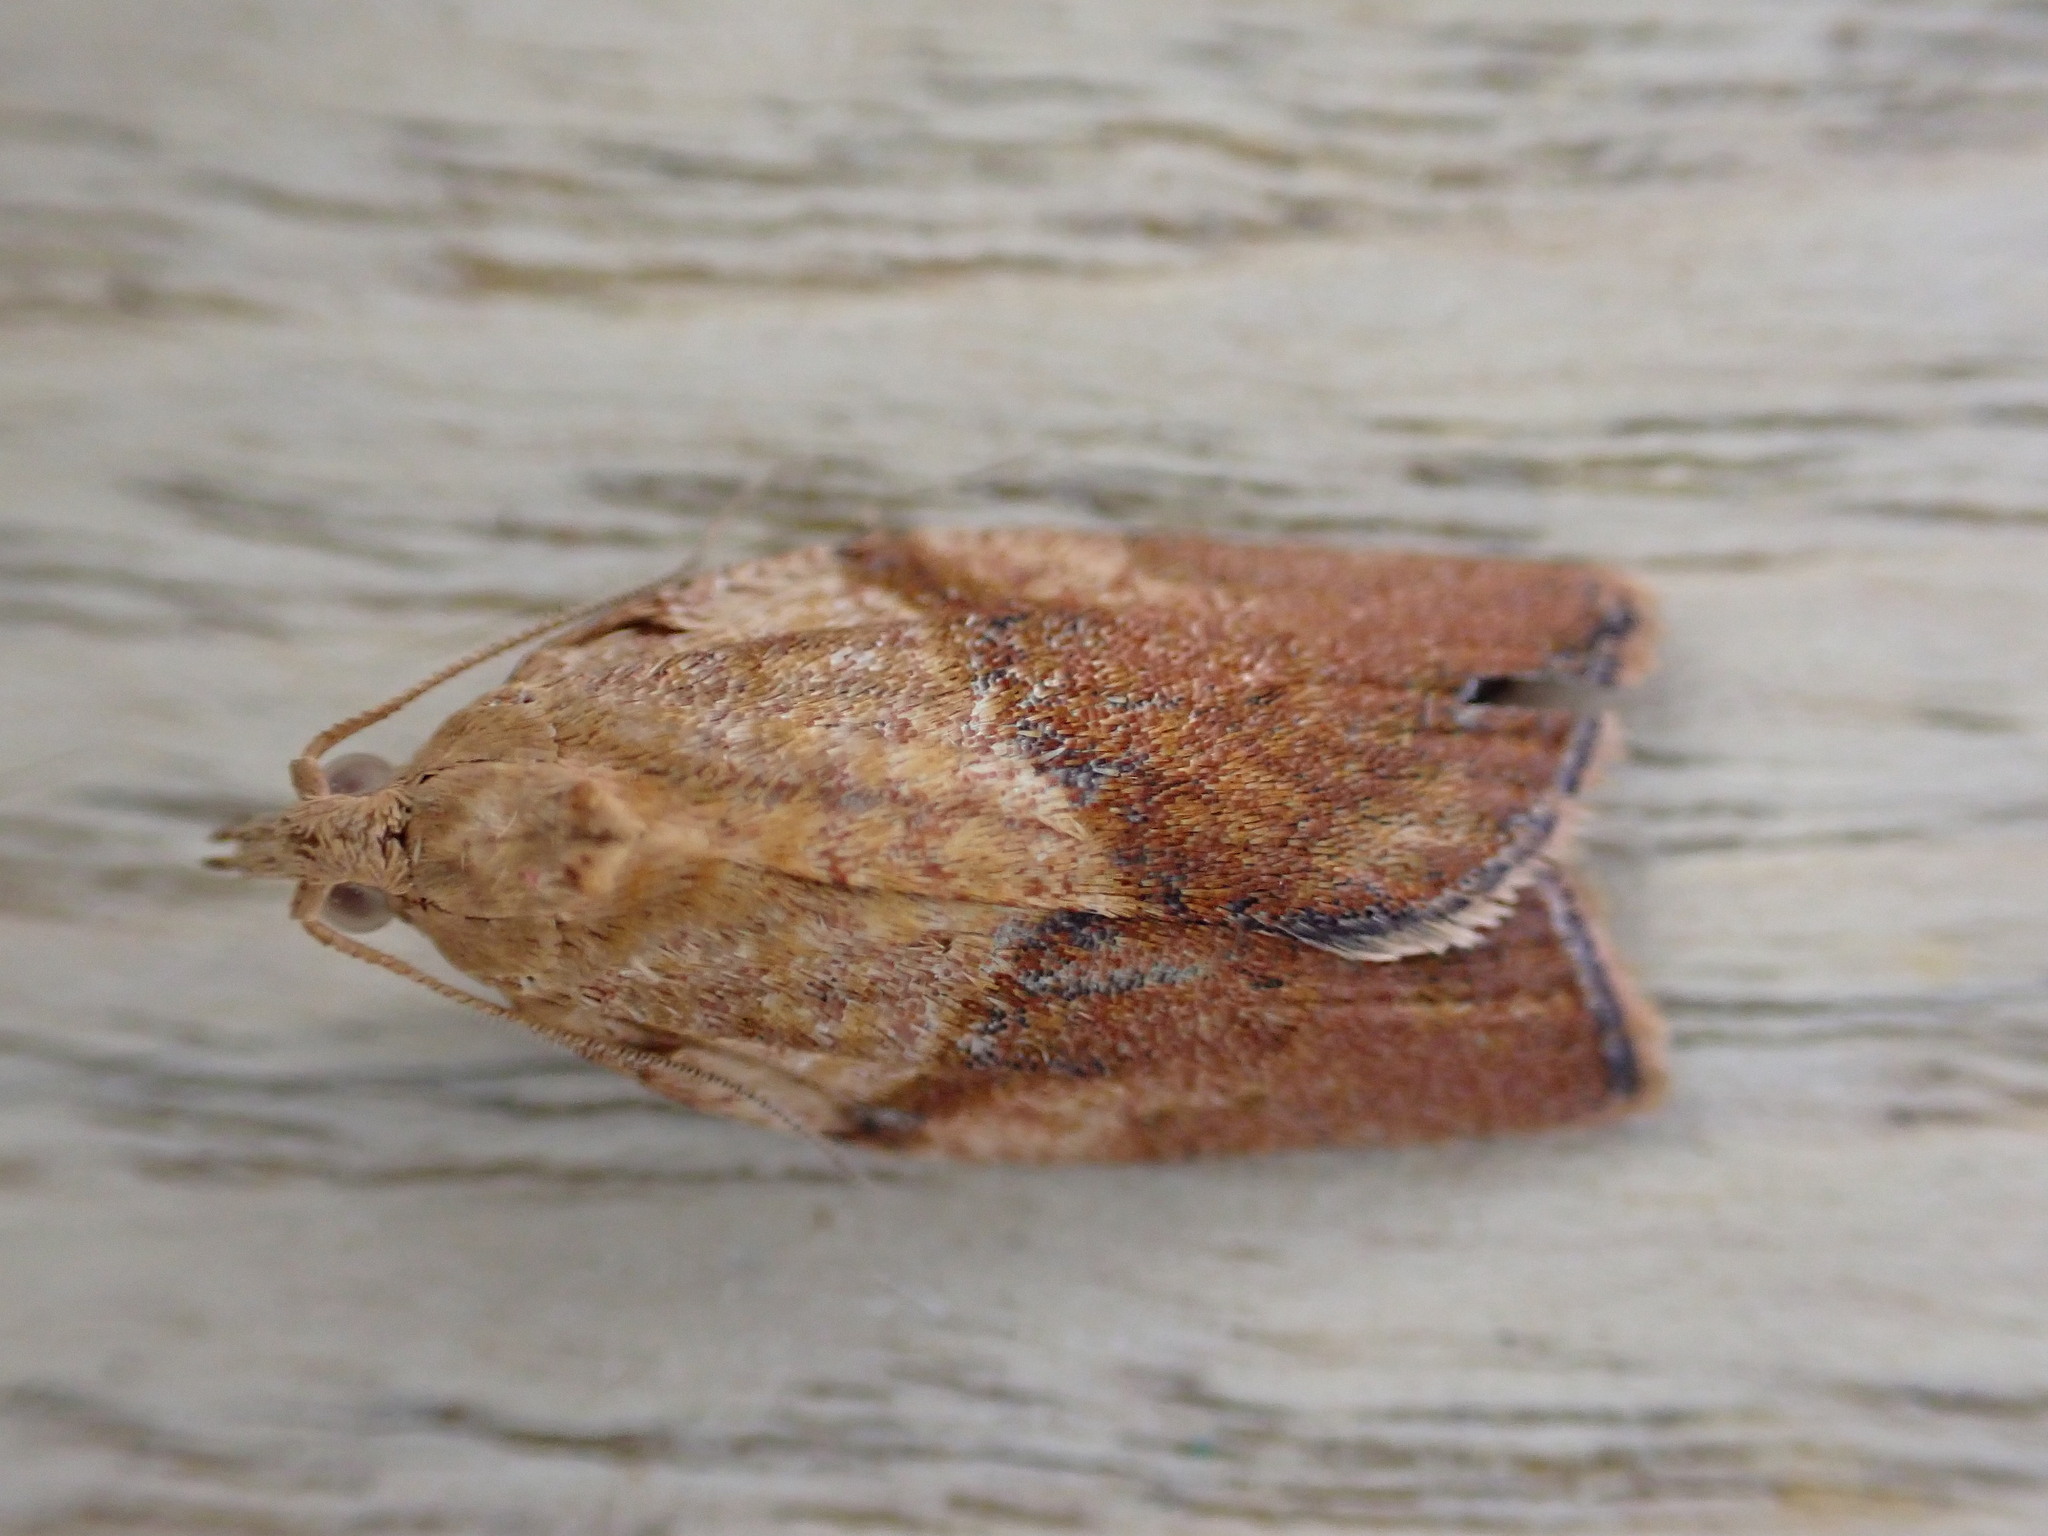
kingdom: Animalia
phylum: Arthropoda
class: Insecta
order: Lepidoptera
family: Tortricidae
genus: Epiphyas
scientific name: Epiphyas postvittana
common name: Light brown apple moth
